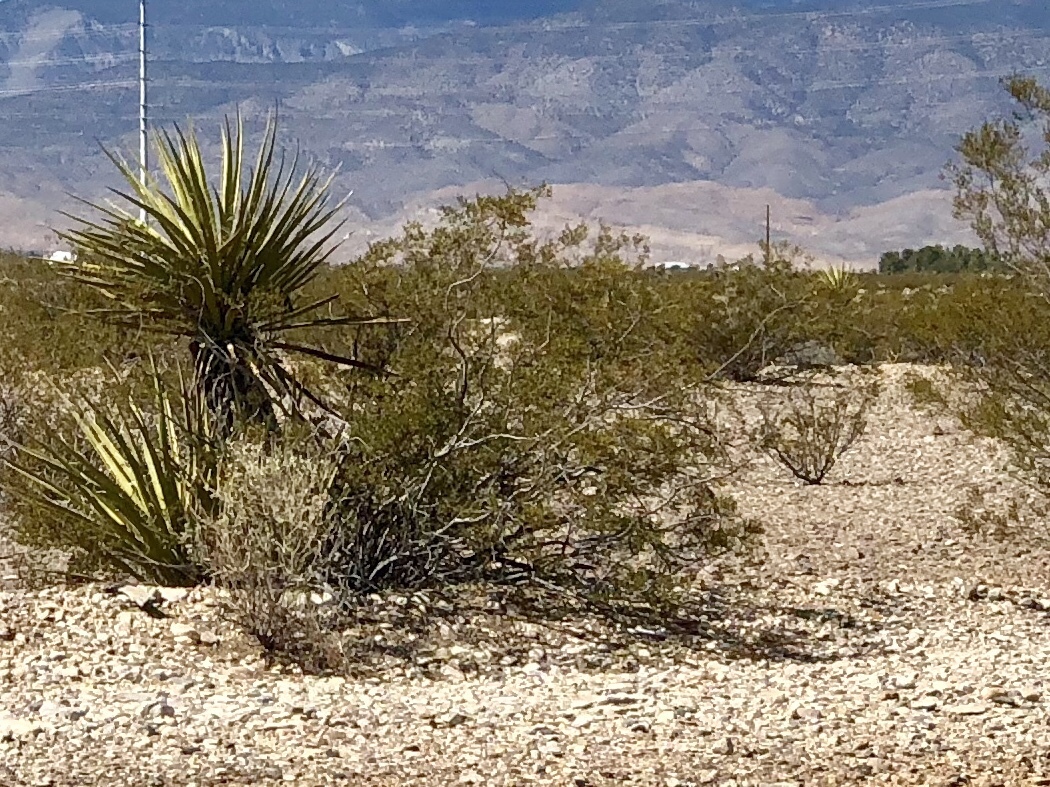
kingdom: Plantae
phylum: Tracheophyta
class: Magnoliopsida
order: Zygophyllales
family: Zygophyllaceae
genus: Larrea
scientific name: Larrea tridentata
